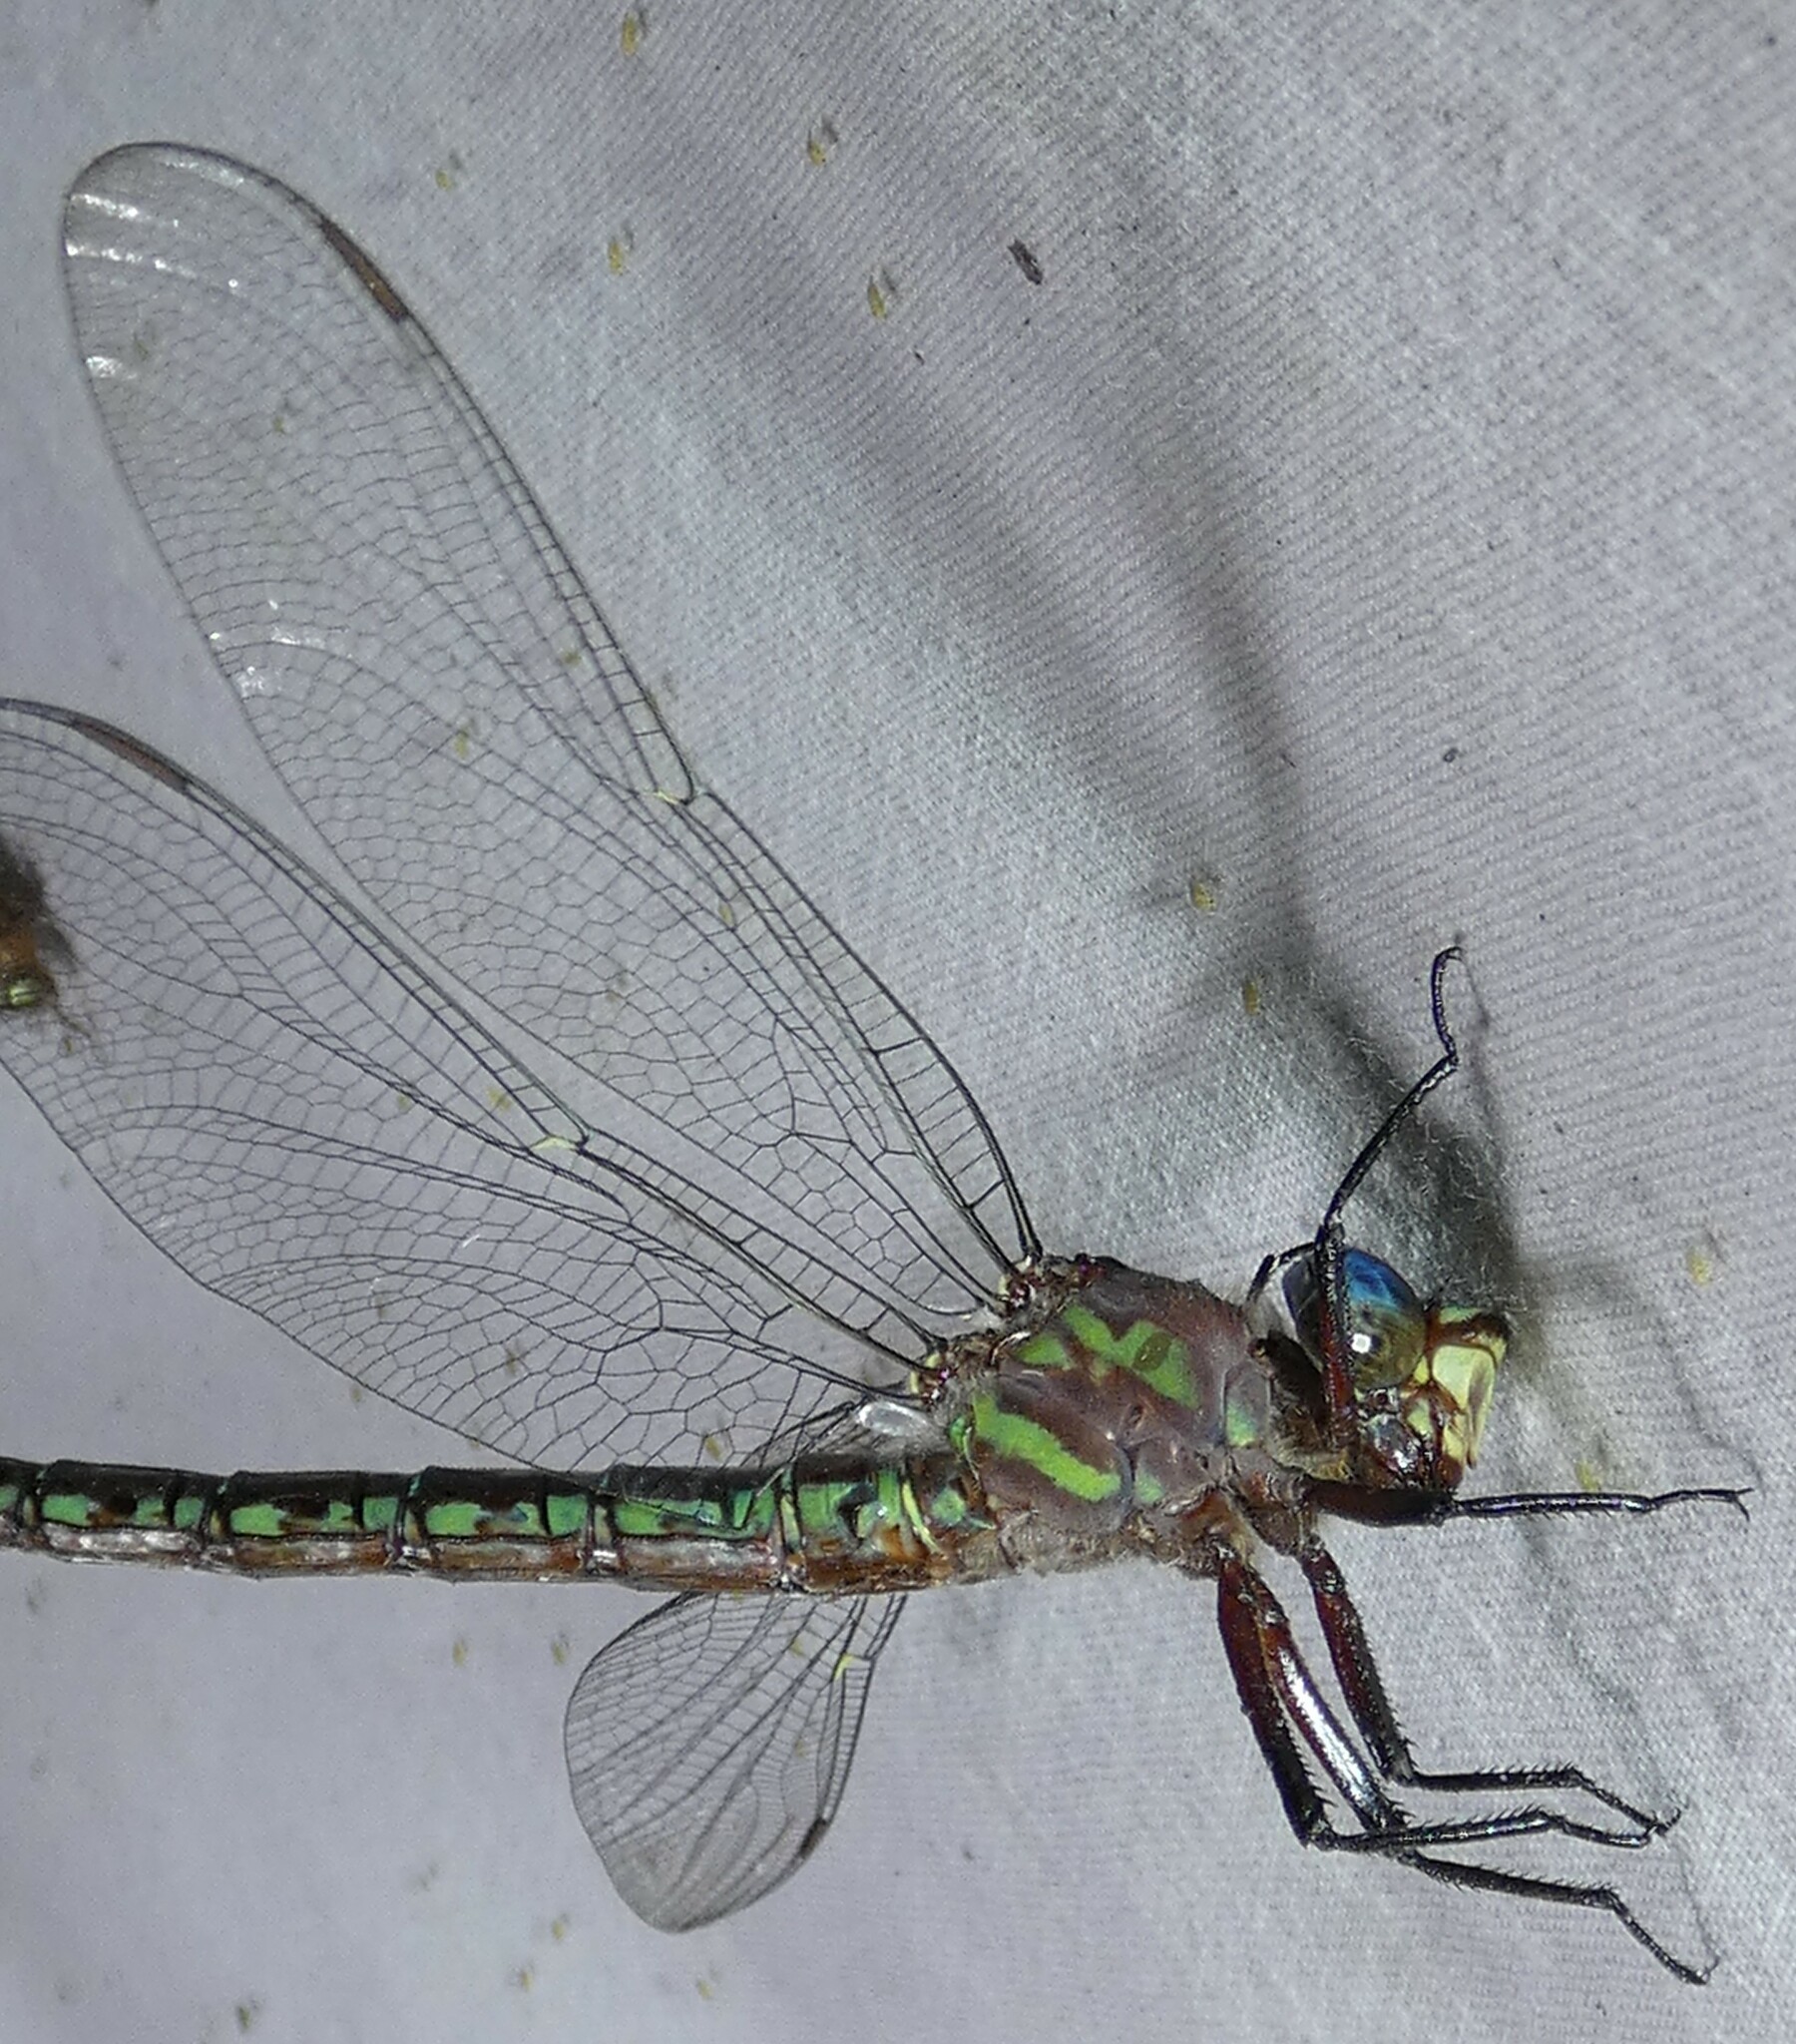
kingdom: Animalia
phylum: Arthropoda
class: Insecta
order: Odonata
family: Aeshnidae
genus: Nasiaeschna
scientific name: Nasiaeschna pentacantha
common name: Cyrano darner
